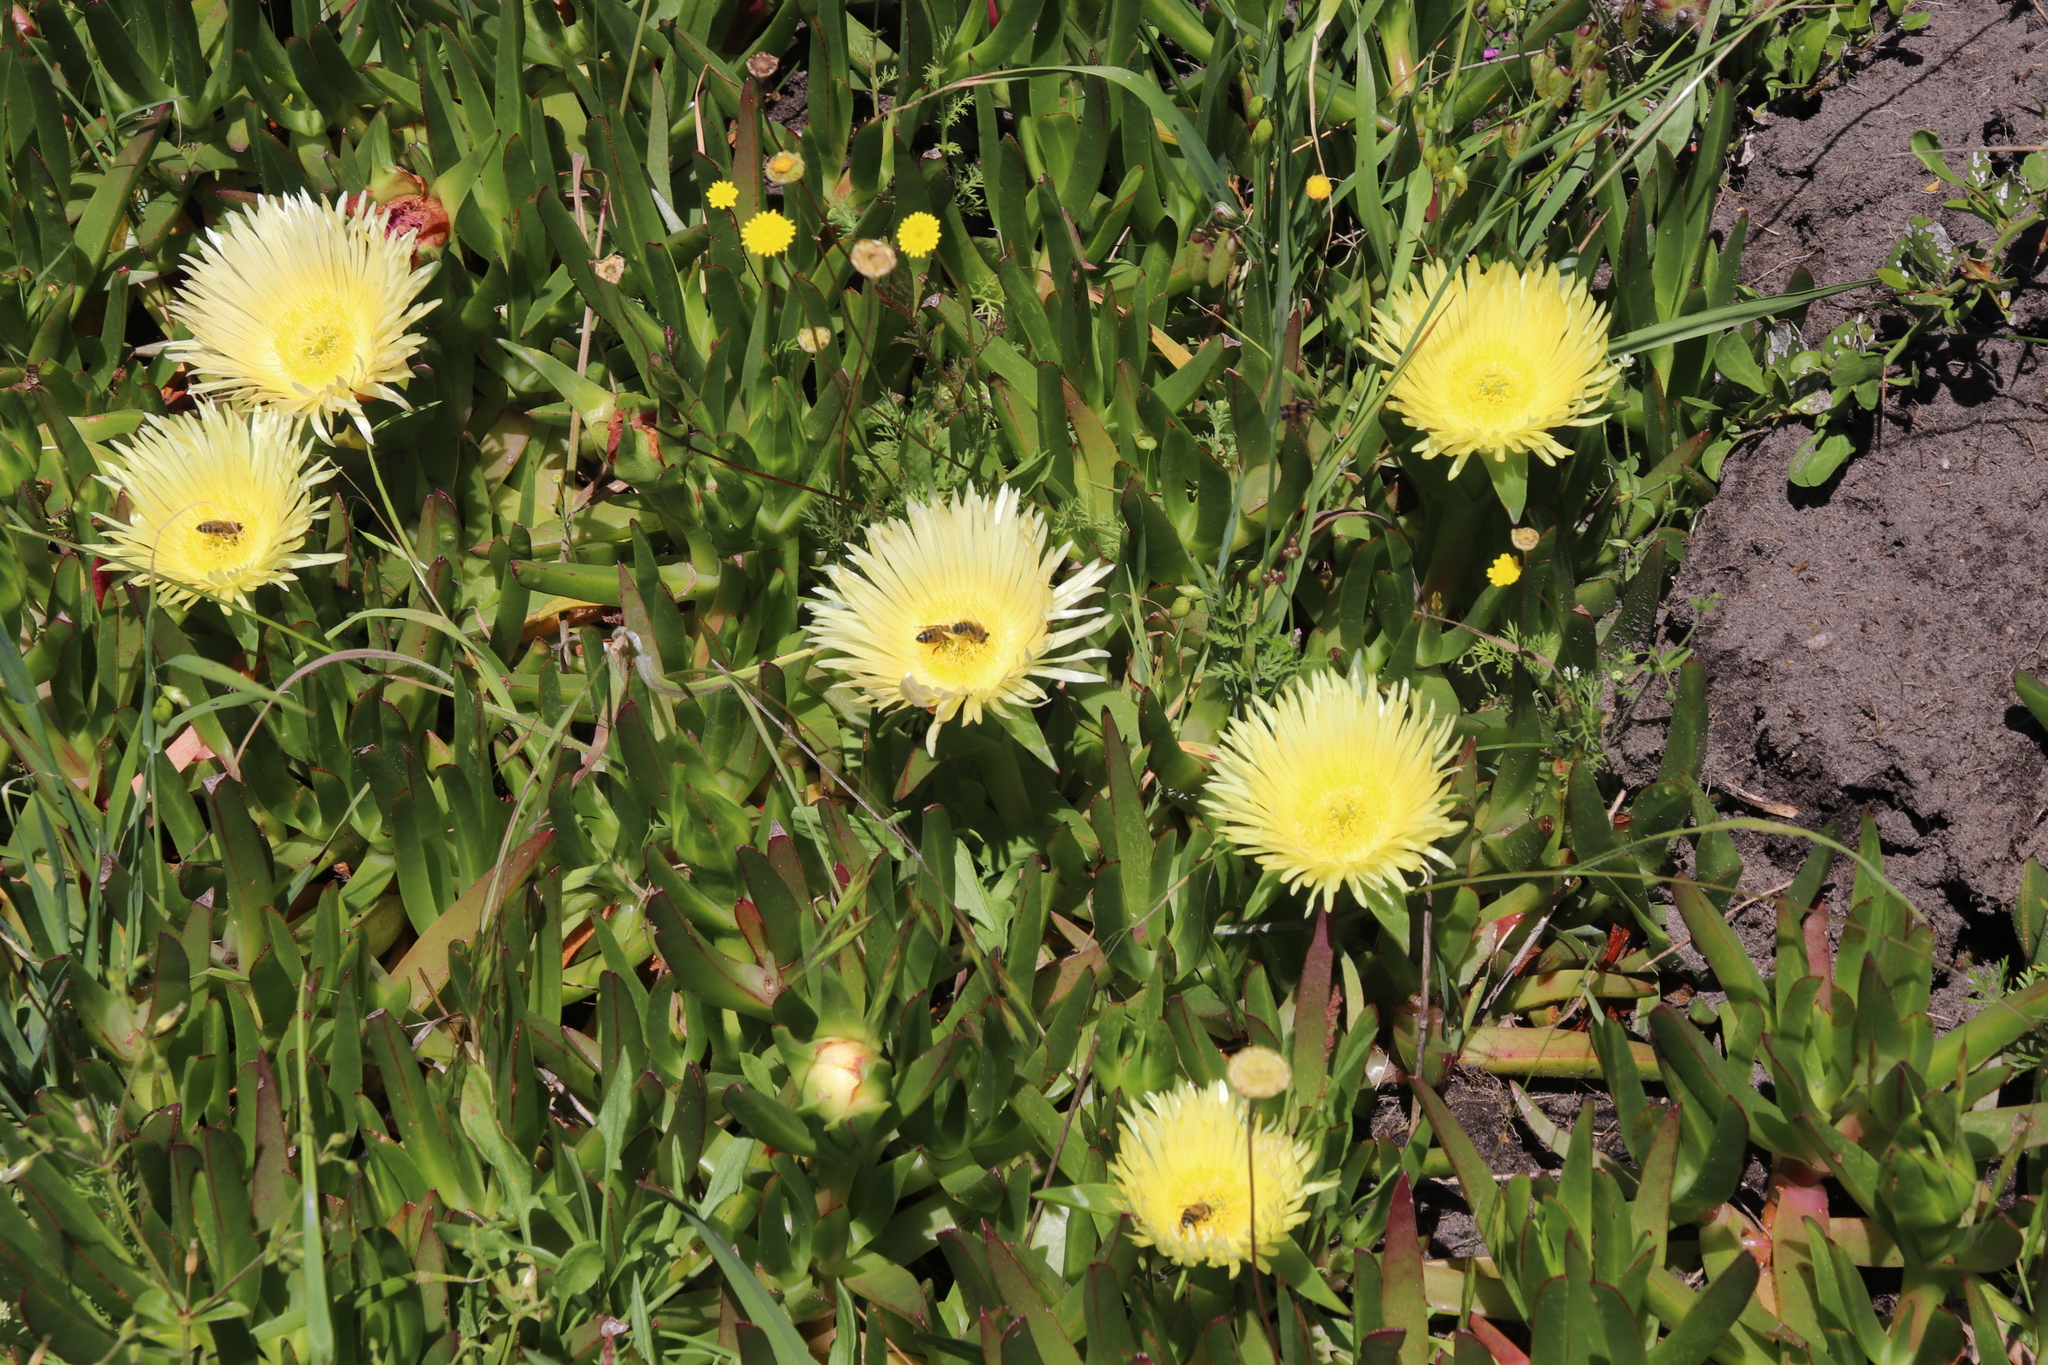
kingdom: Plantae
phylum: Tracheophyta
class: Magnoliopsida
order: Caryophyllales
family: Aizoaceae
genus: Carpobrotus
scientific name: Carpobrotus edulis
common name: Hottentot-fig
